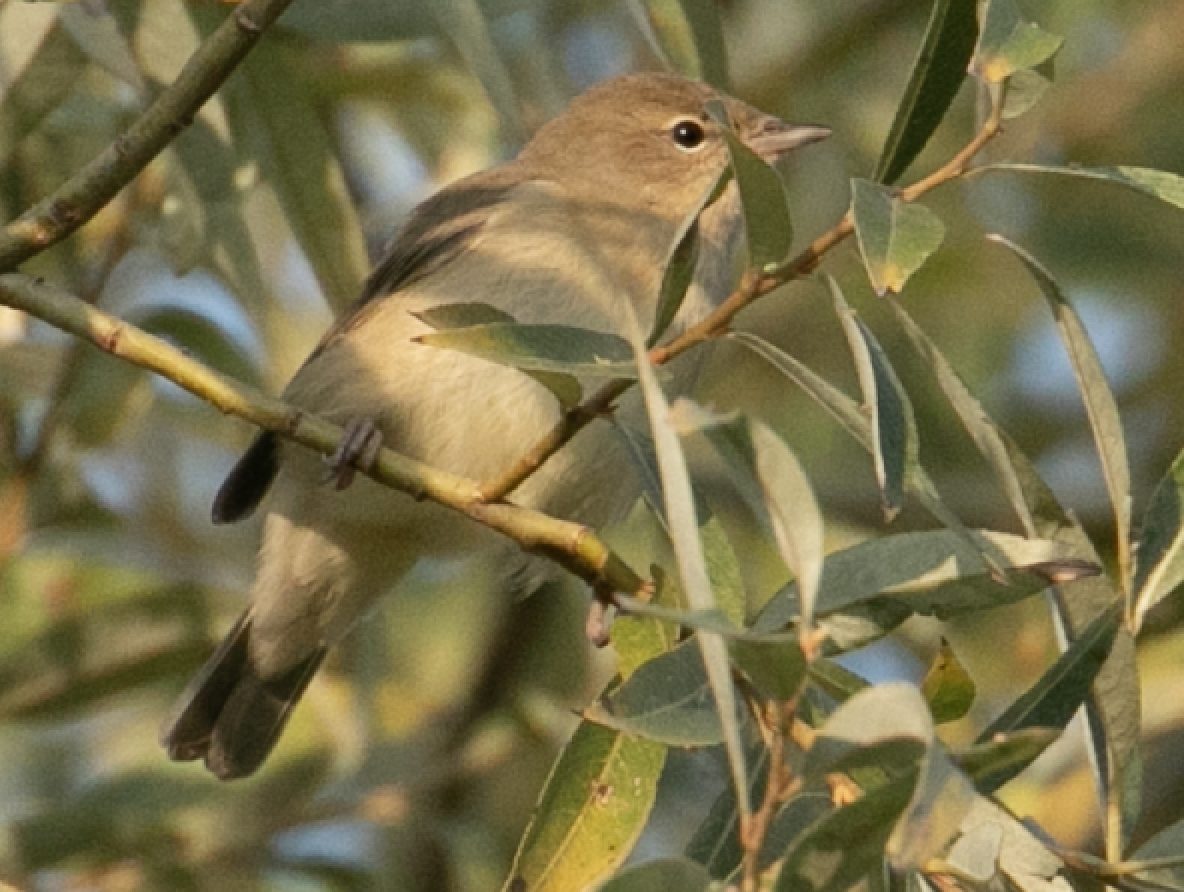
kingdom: Animalia
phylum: Chordata
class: Aves
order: Passeriformes
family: Sylviidae
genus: Sylvia
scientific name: Sylvia borin
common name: Garden warbler
